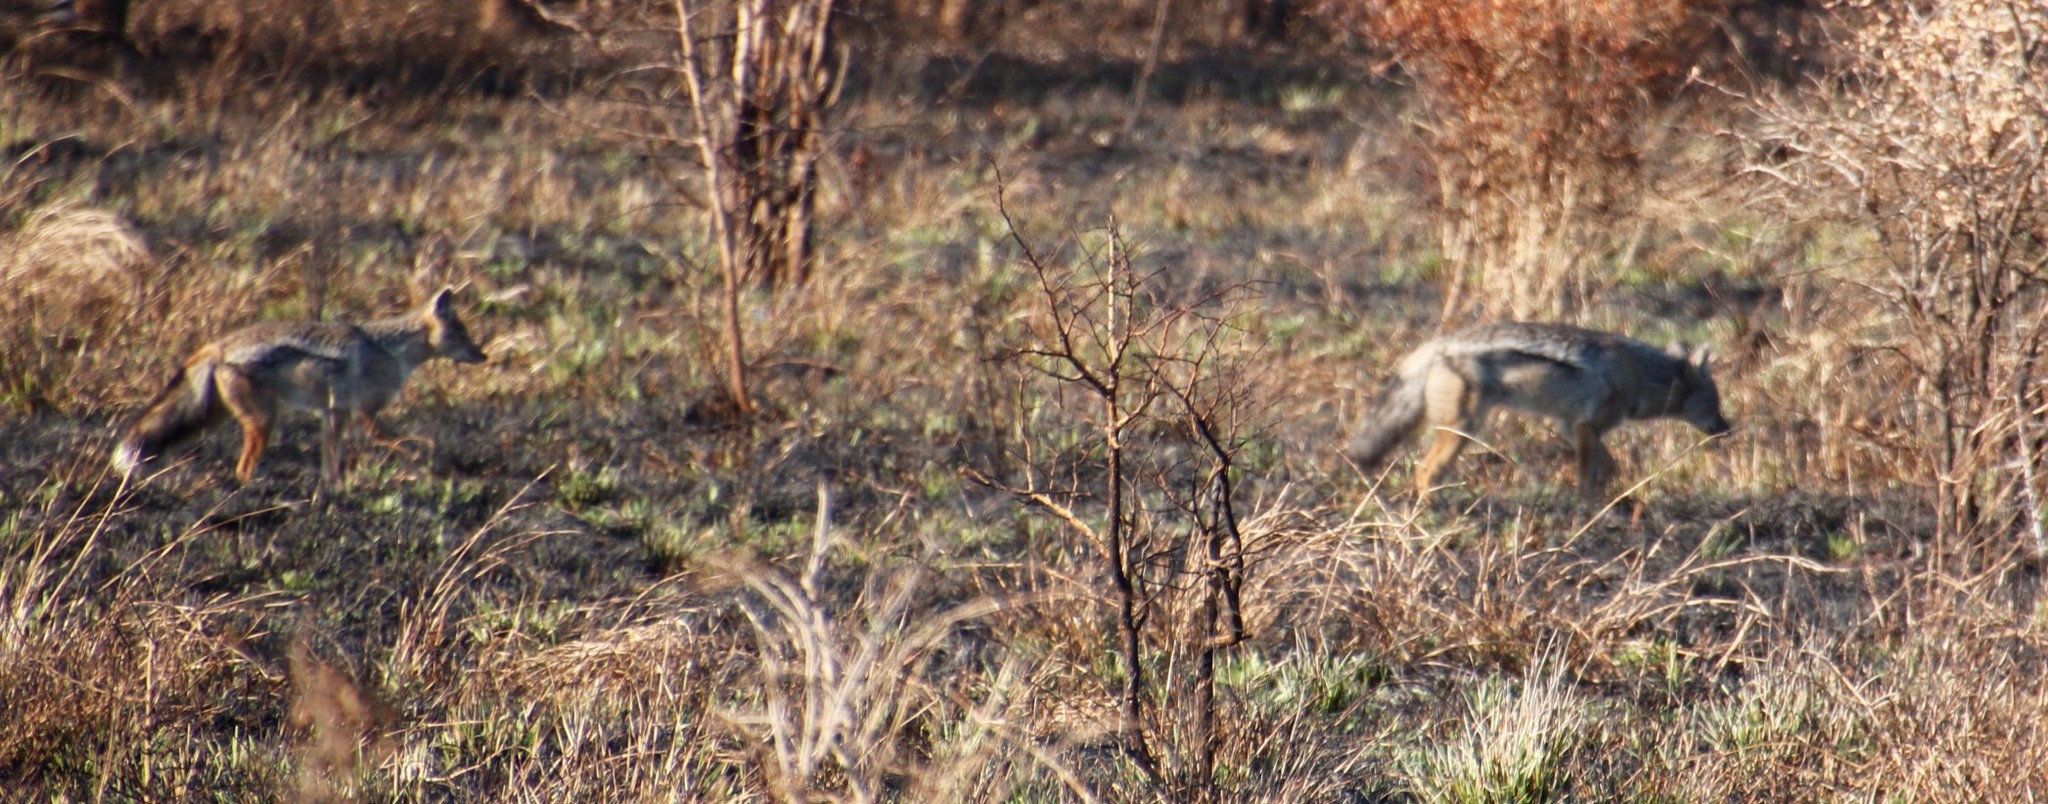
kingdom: Animalia
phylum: Chordata
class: Mammalia
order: Carnivora
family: Canidae
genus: Lupulella
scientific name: Lupulella
